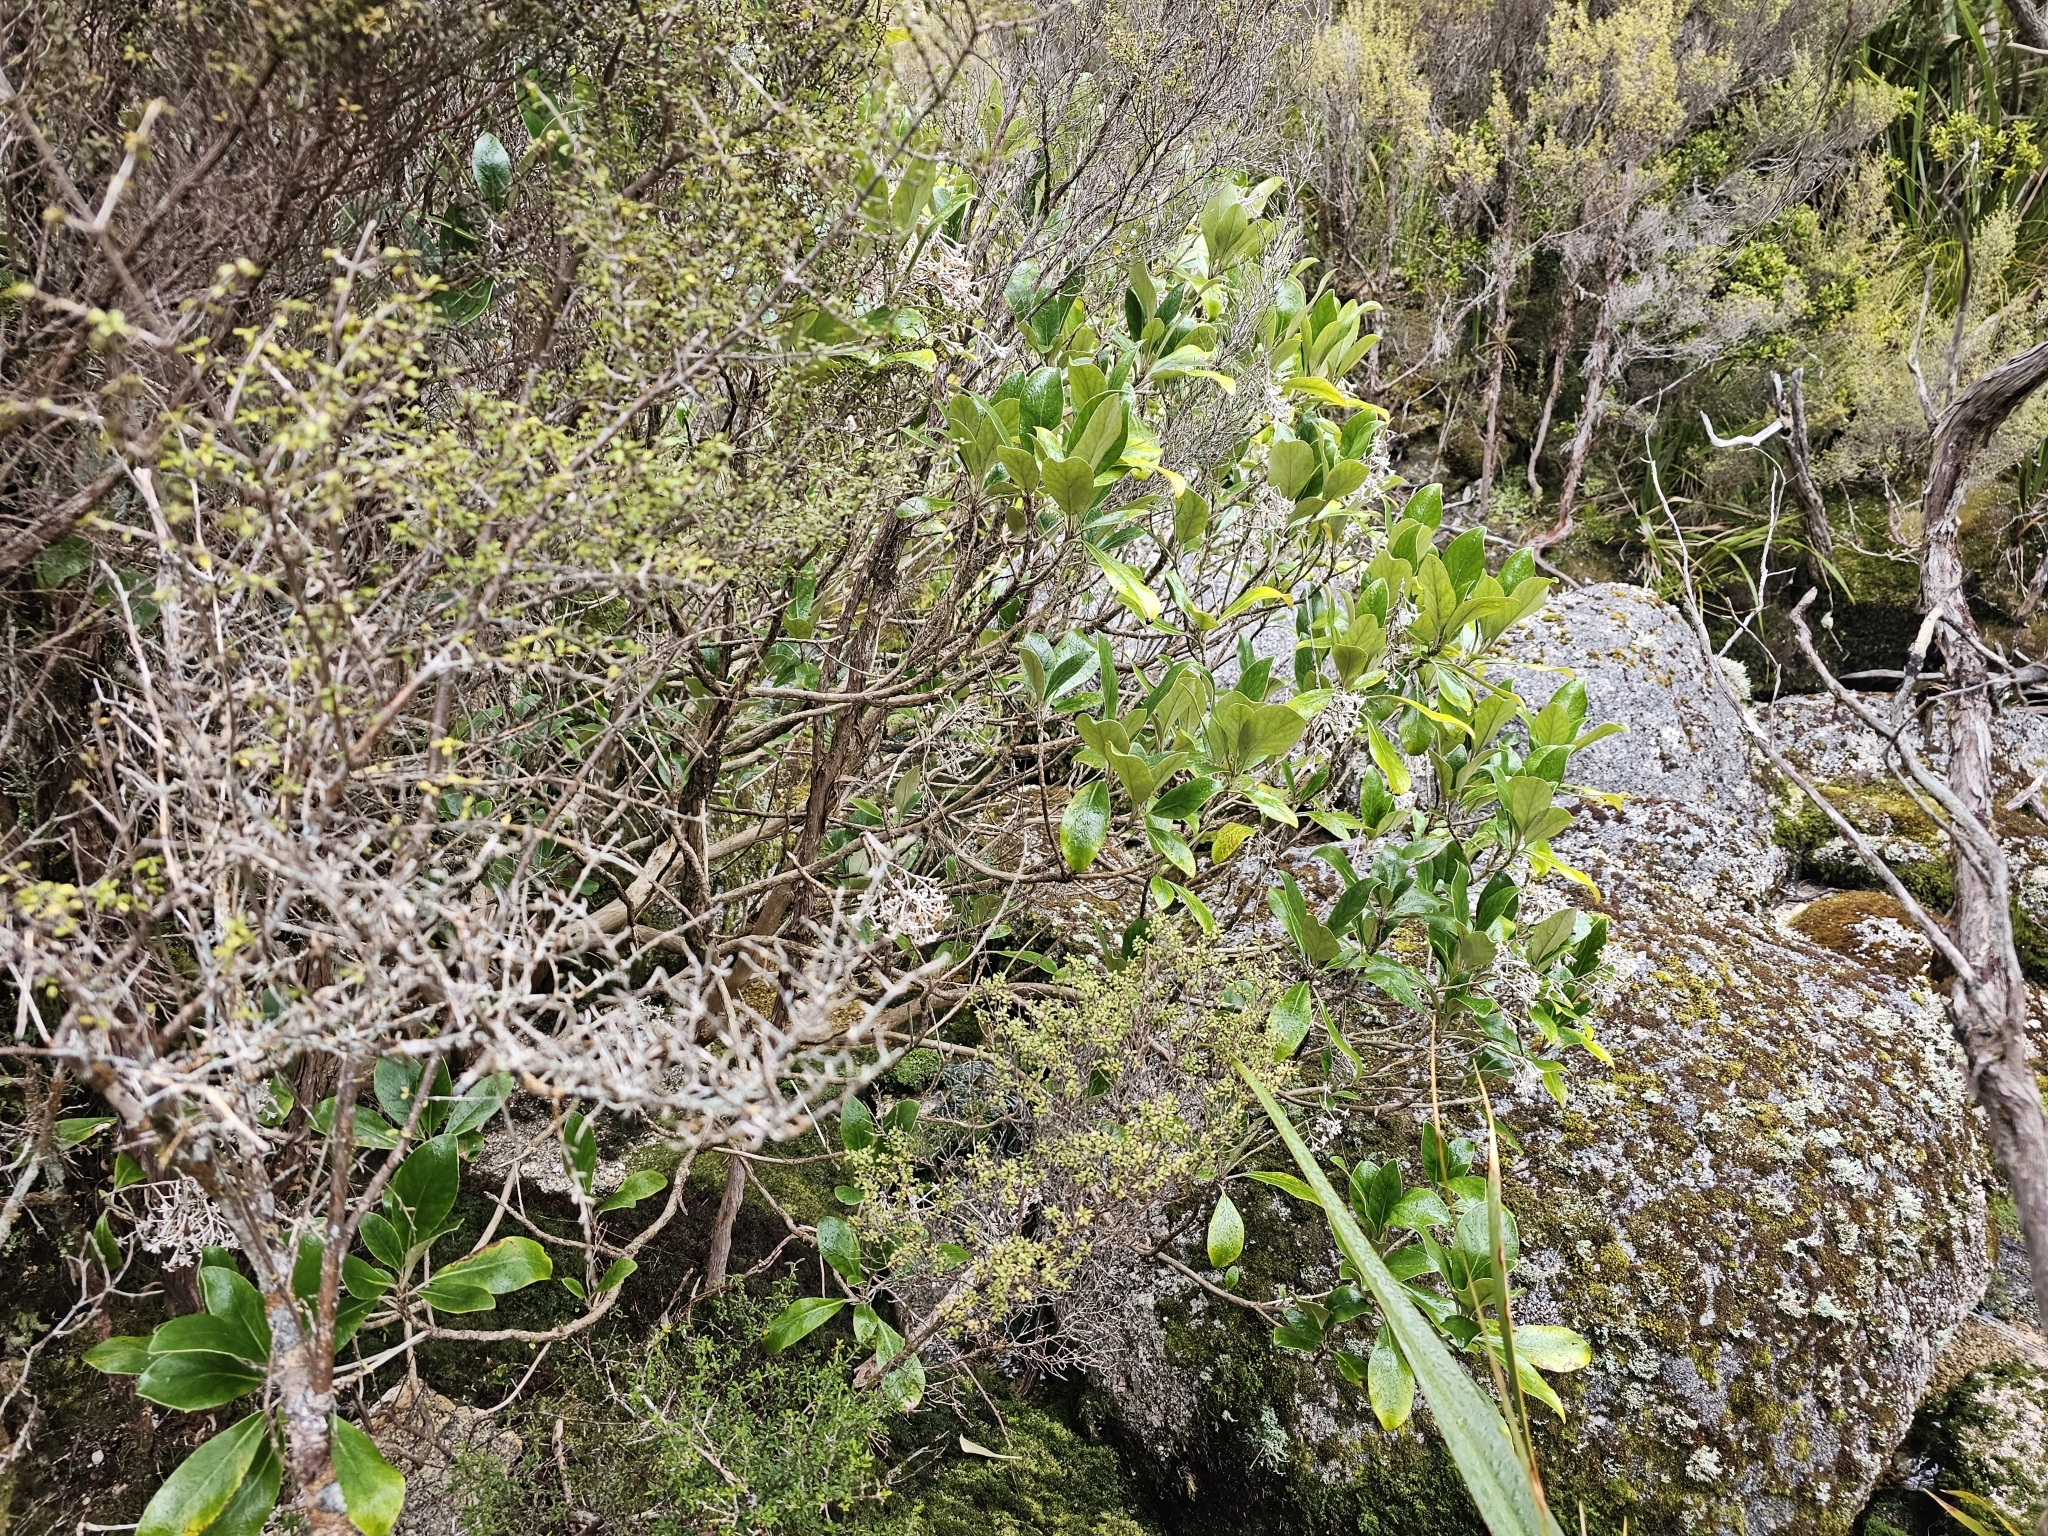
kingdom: Plantae
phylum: Tracheophyta
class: Magnoliopsida
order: Asterales
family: Asteraceae
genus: Olearia
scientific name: Olearia avicenniifolia
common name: Mangrove-leaf daisybush
